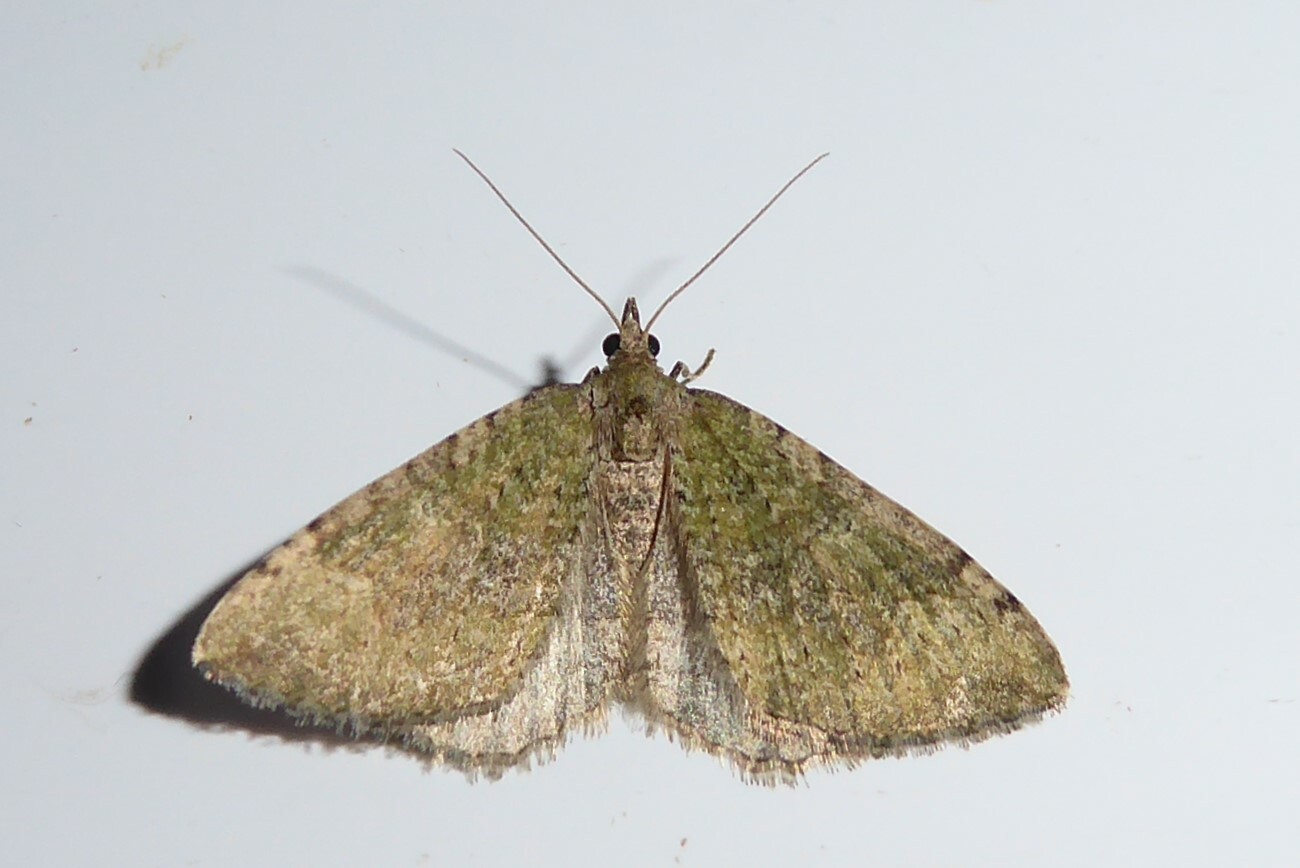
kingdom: Animalia
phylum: Arthropoda
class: Insecta
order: Lepidoptera
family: Geometridae
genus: Epyaxa
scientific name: Epyaxa rosearia
